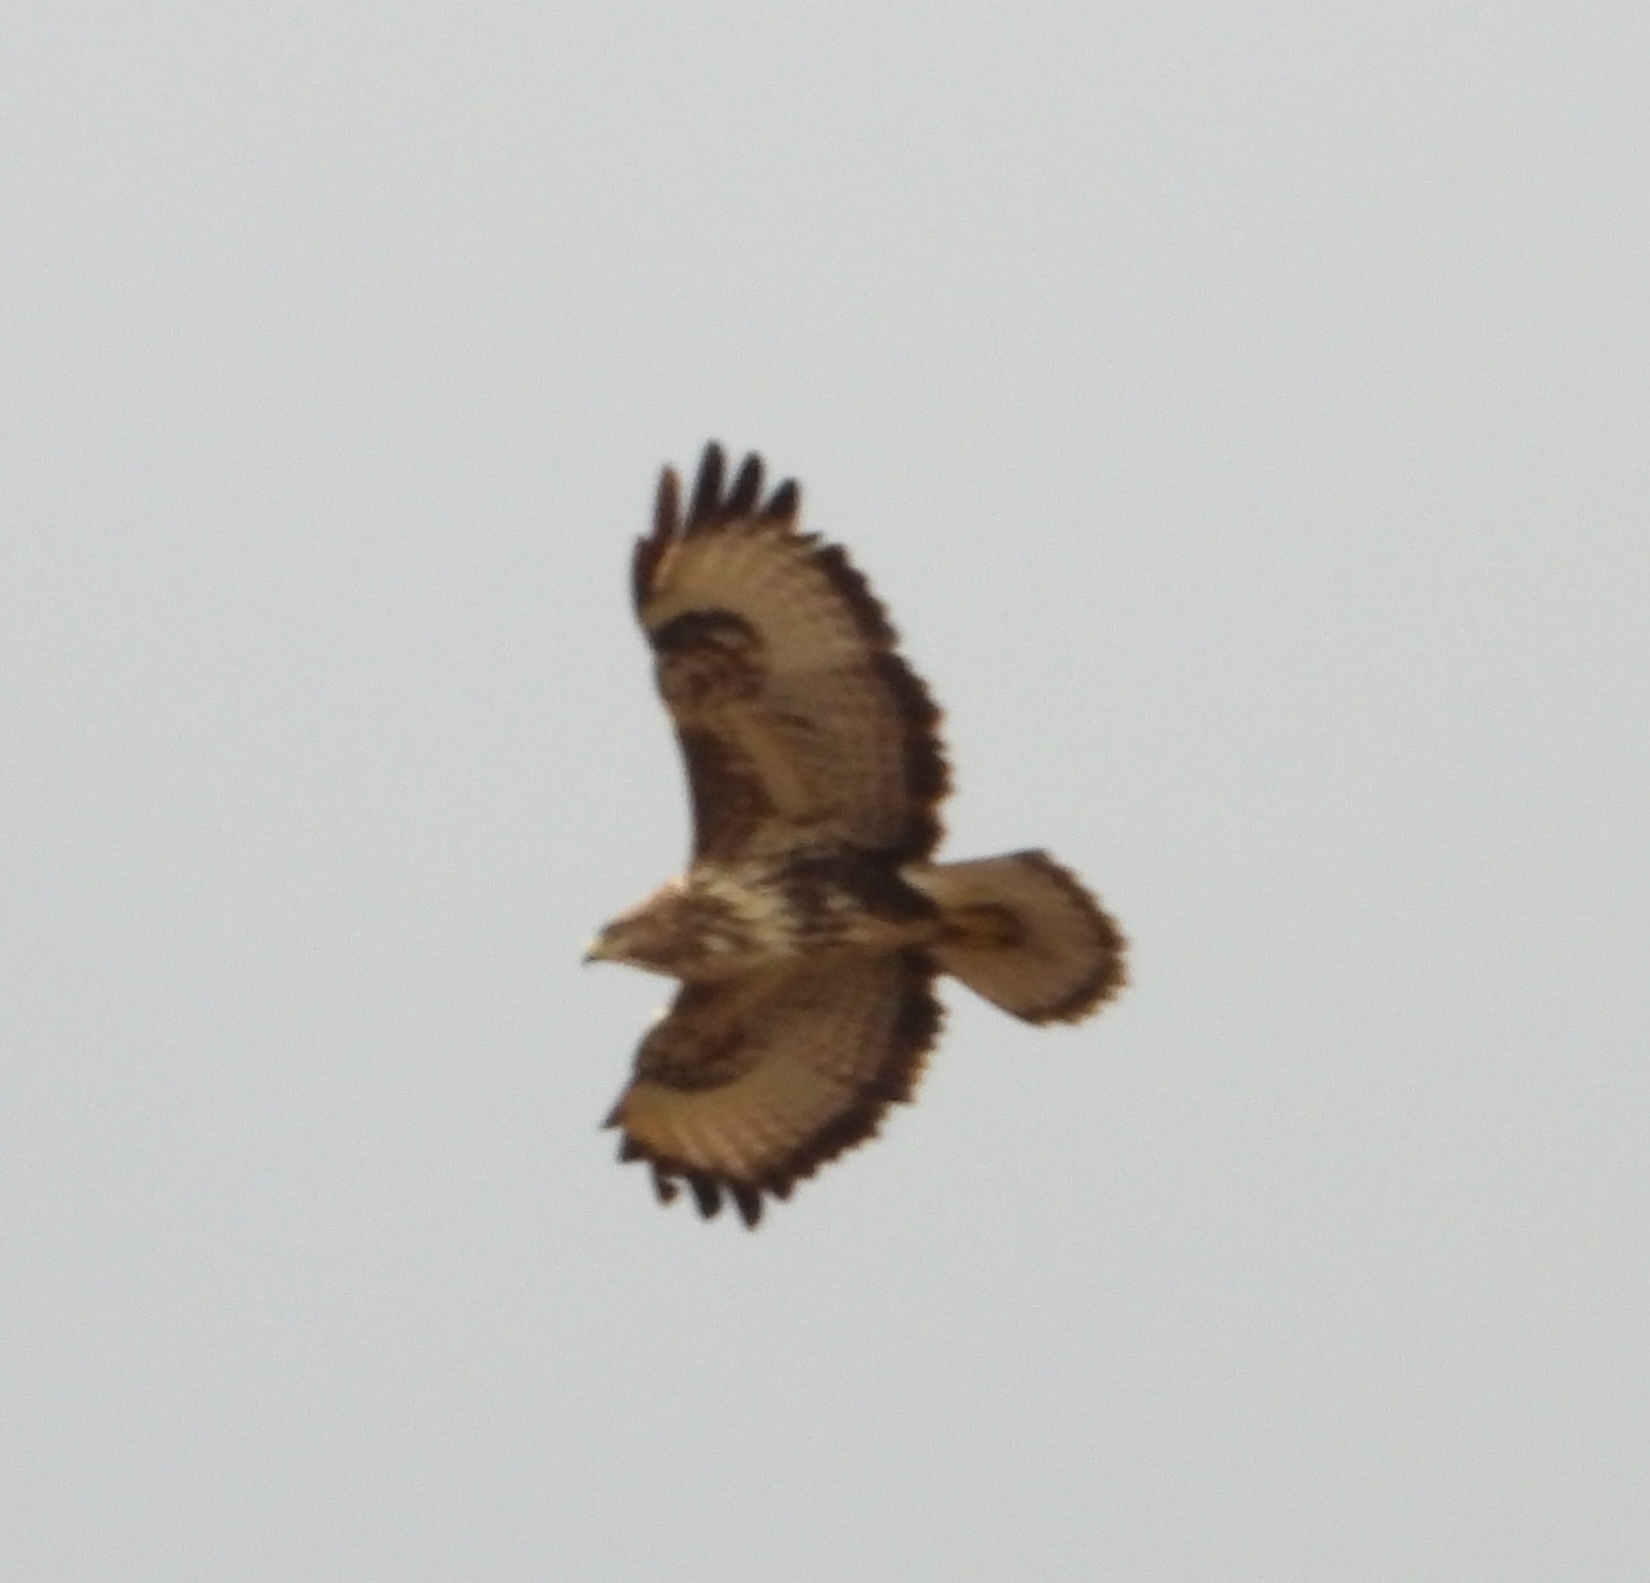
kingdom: Animalia
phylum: Chordata
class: Aves
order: Accipitriformes
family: Accipitridae
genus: Buteo
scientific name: Buteo buteo
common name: Common buzzard
